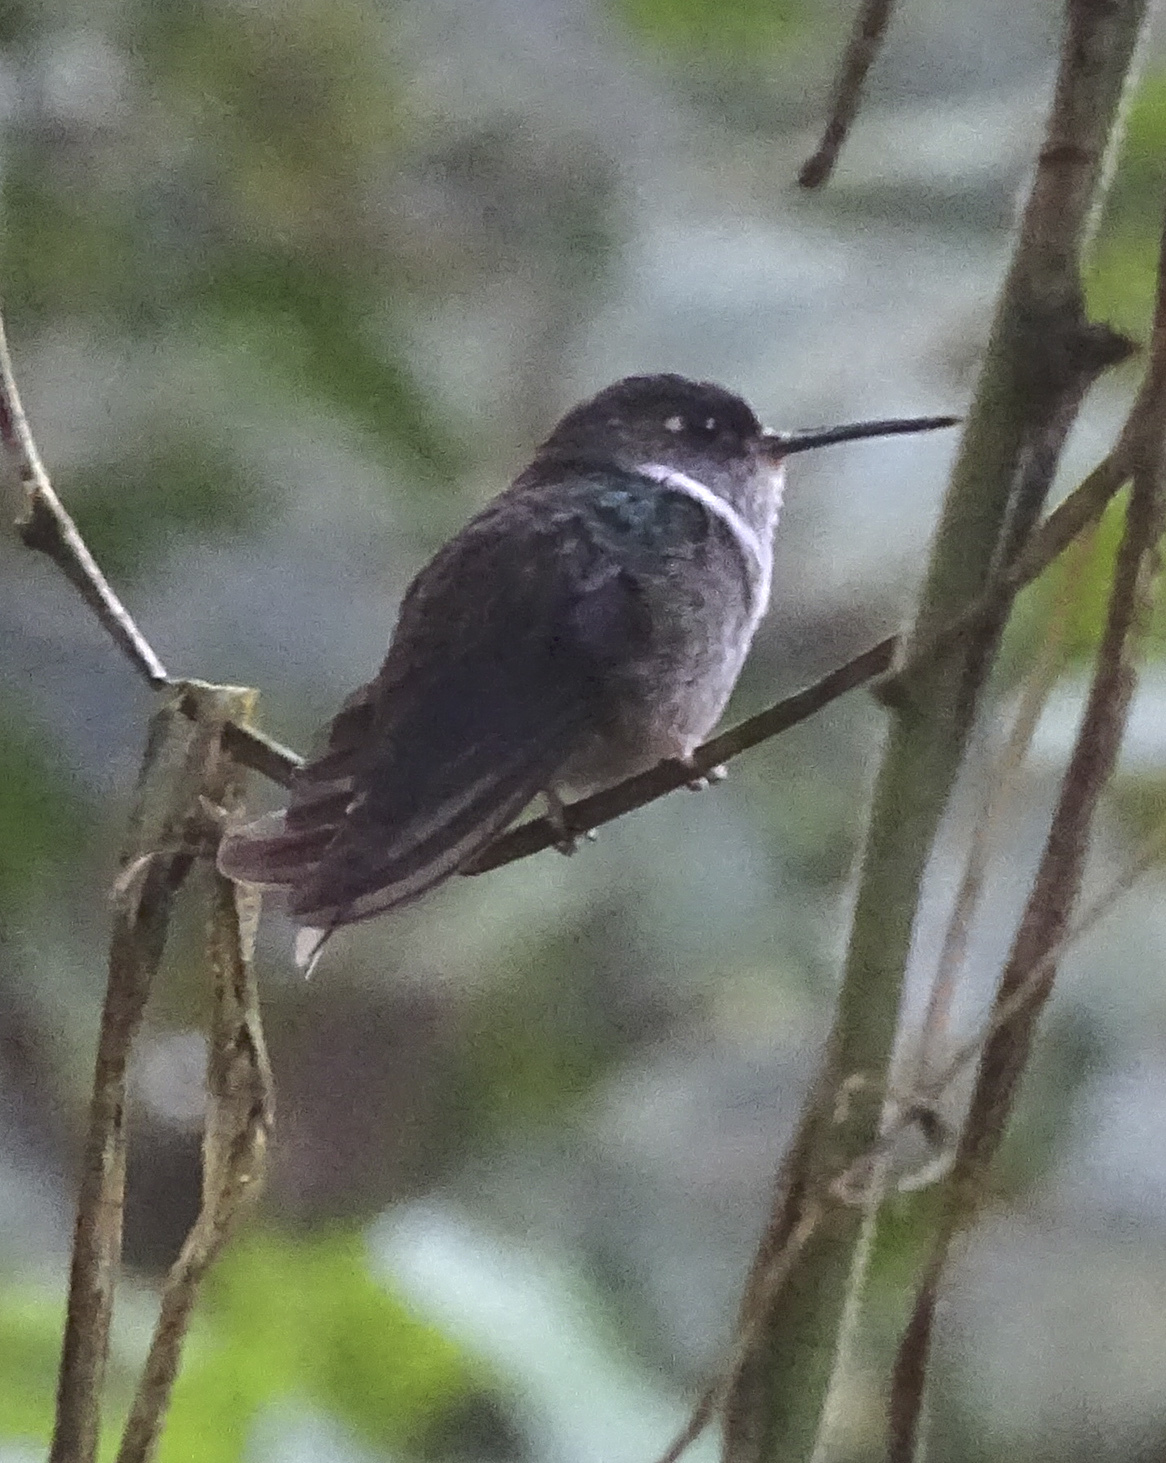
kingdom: Animalia
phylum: Chordata
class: Aves
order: Apodiformes
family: Trochilidae
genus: Phlogophilus
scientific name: Phlogophilus hemileucurus
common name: Ecuadorian piedtail
